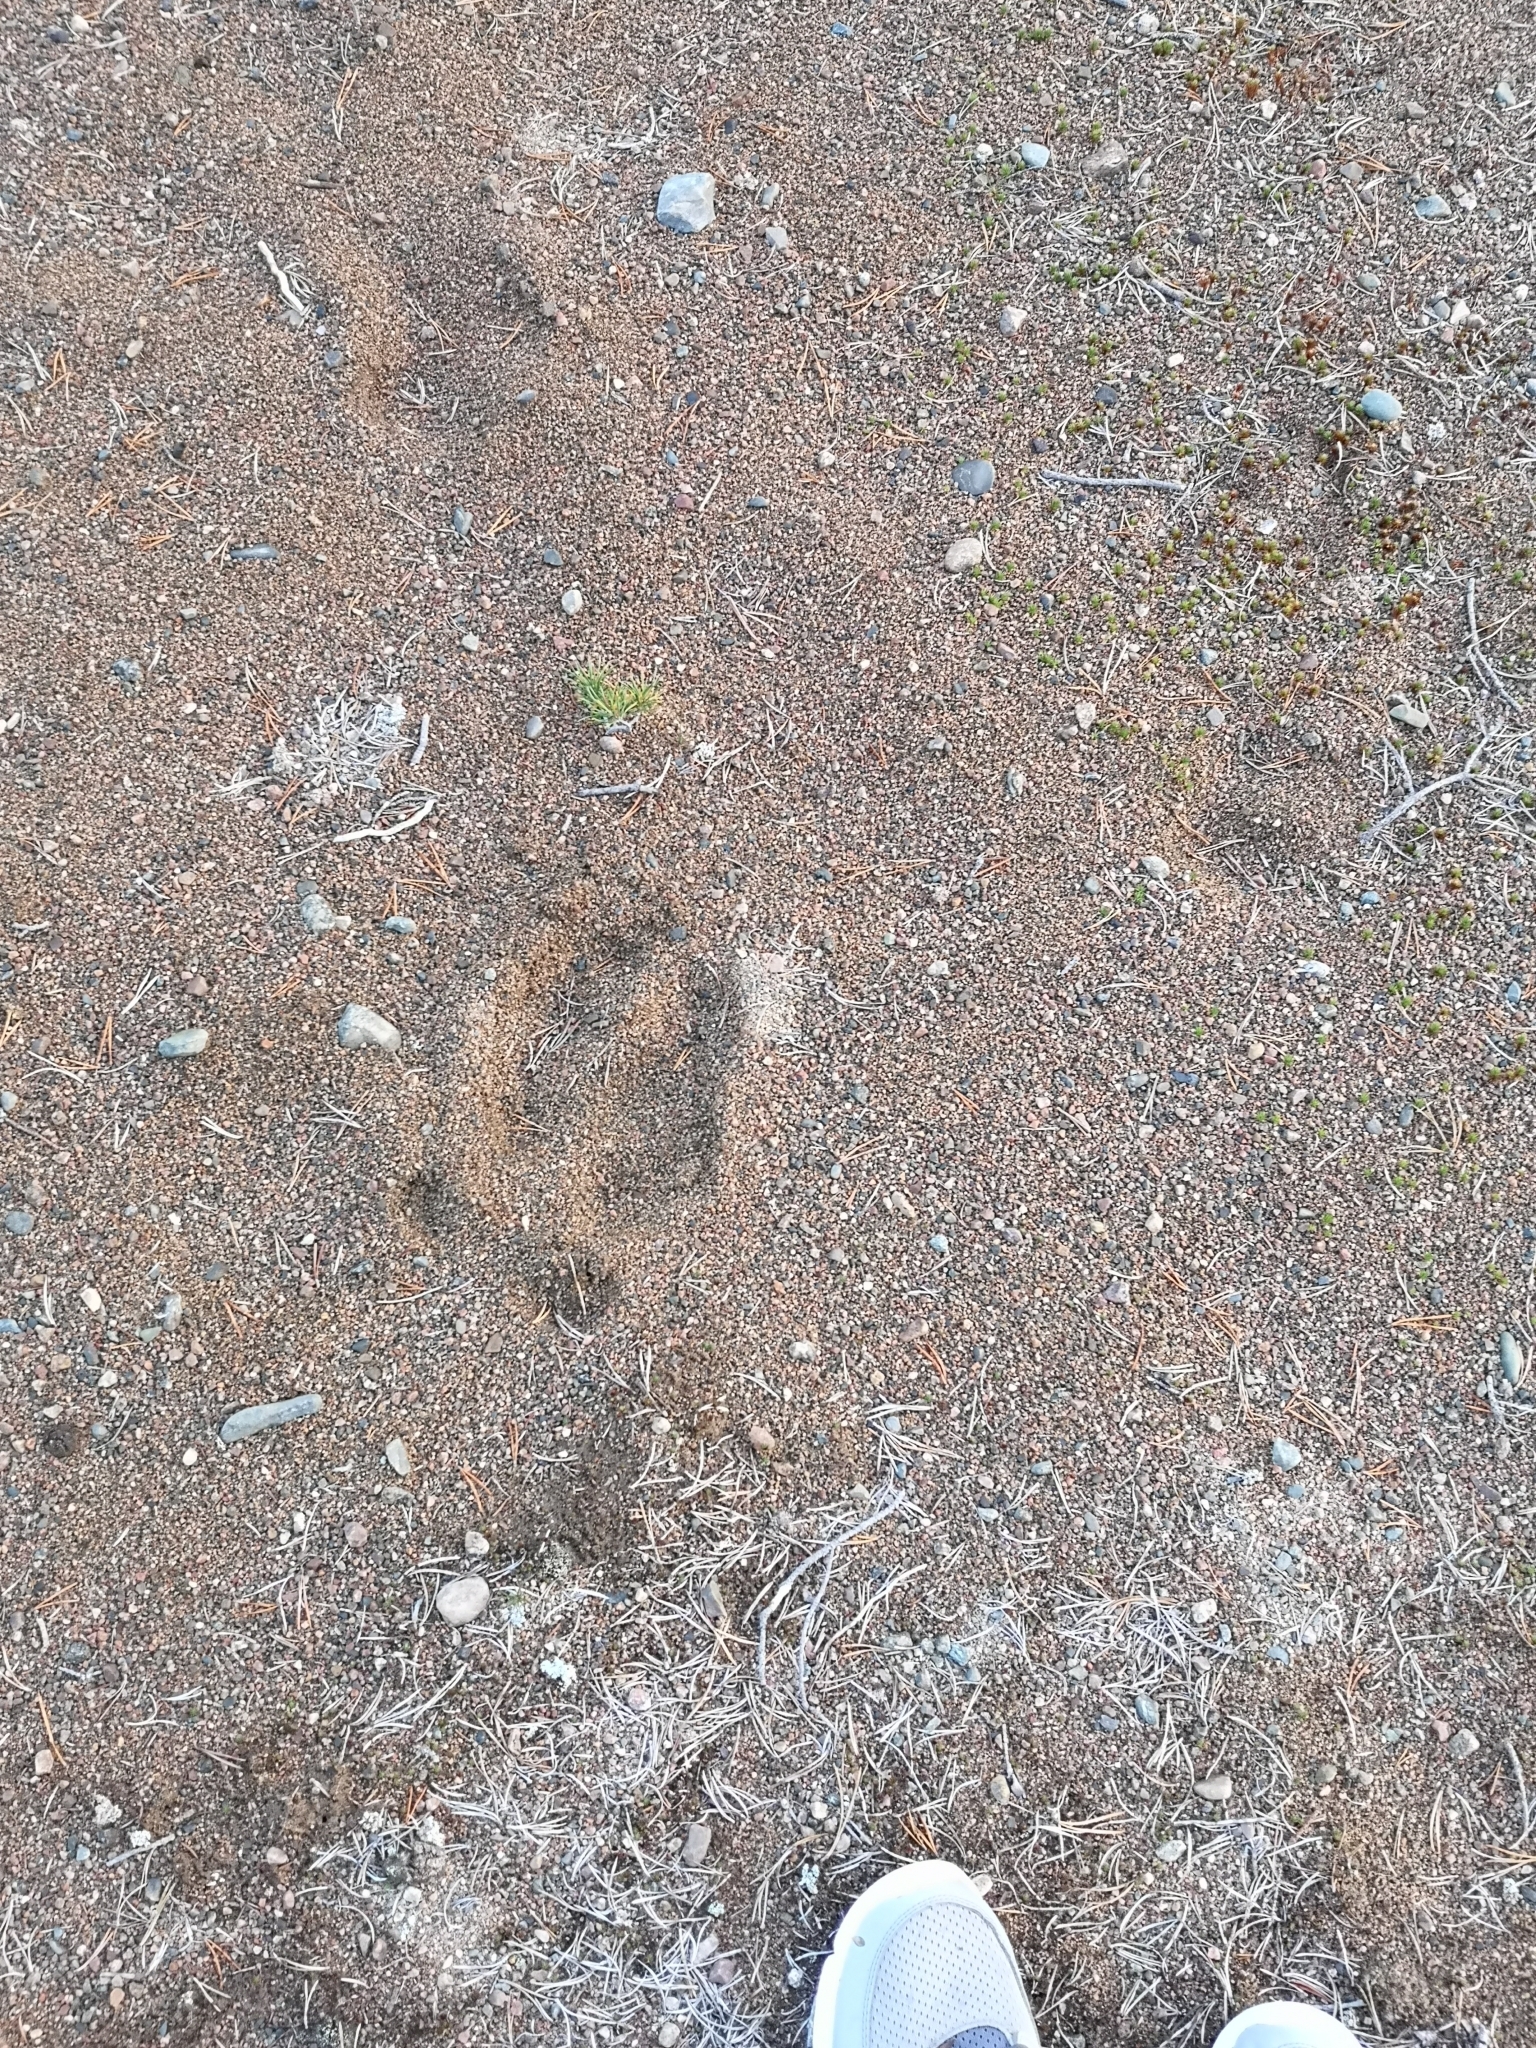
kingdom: Animalia
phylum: Chordata
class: Mammalia
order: Artiodactyla
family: Cervidae
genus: Alces
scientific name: Alces alces
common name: Moose
